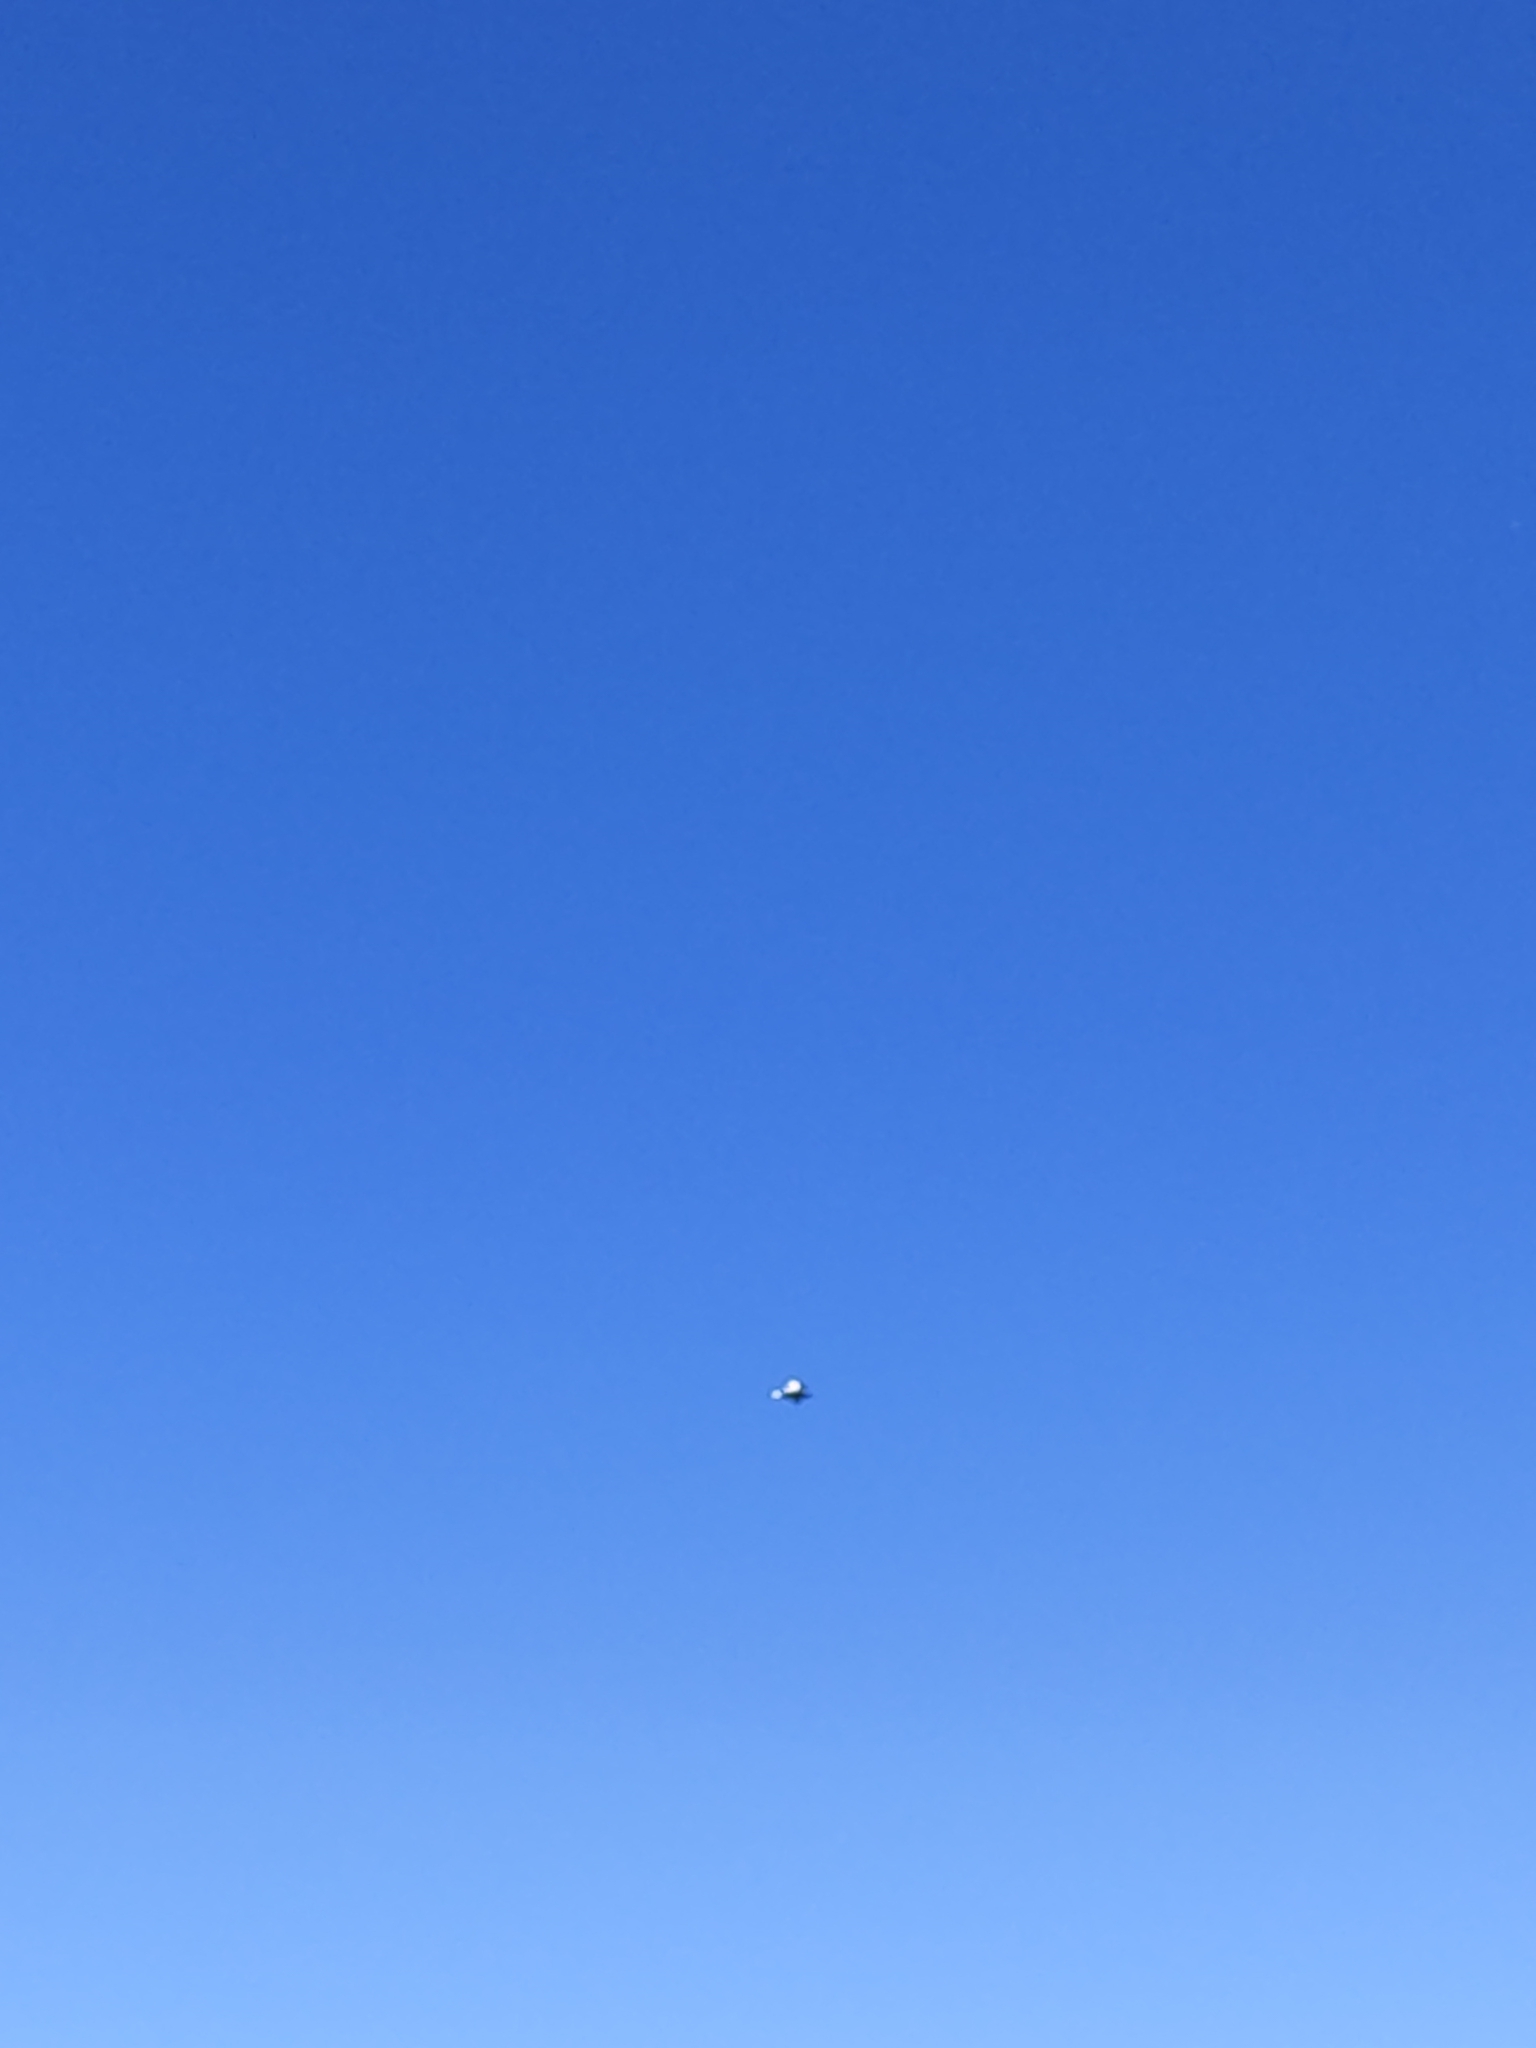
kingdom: Animalia
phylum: Chordata
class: Aves
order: Anseriformes
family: Anatidae
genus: Tadorna
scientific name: Tadorna variegata
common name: Paradise shelduck
